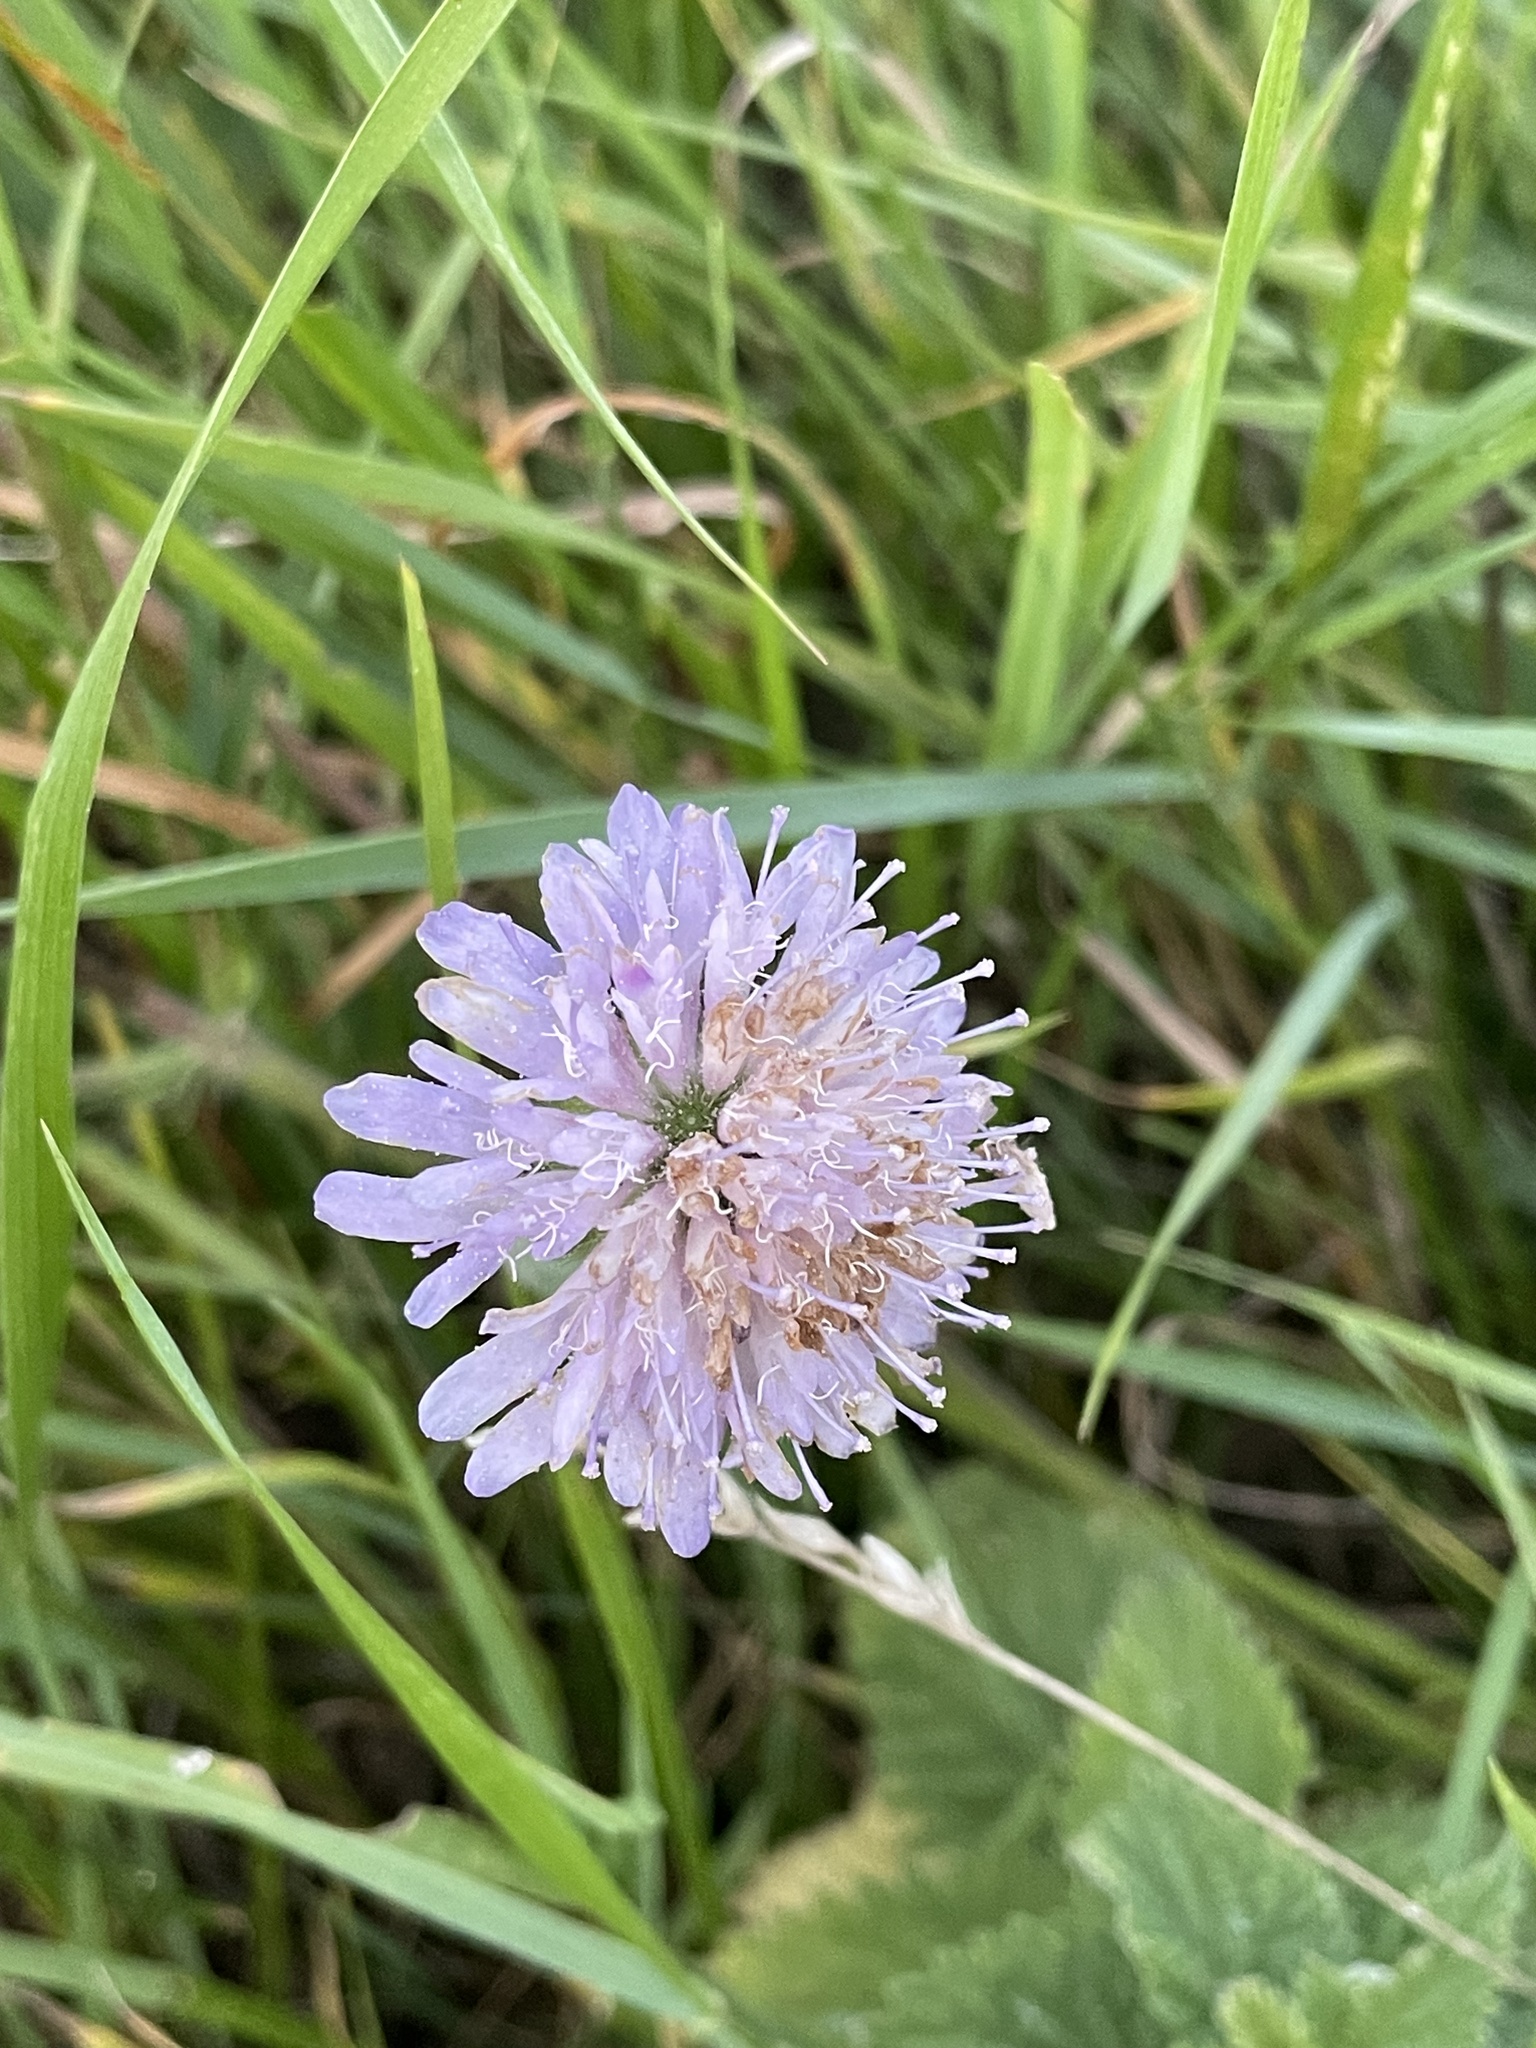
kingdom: Plantae
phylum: Tracheophyta
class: Magnoliopsida
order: Dipsacales
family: Caprifoliaceae
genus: Knautia
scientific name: Knautia arvensis
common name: Field scabiosa
